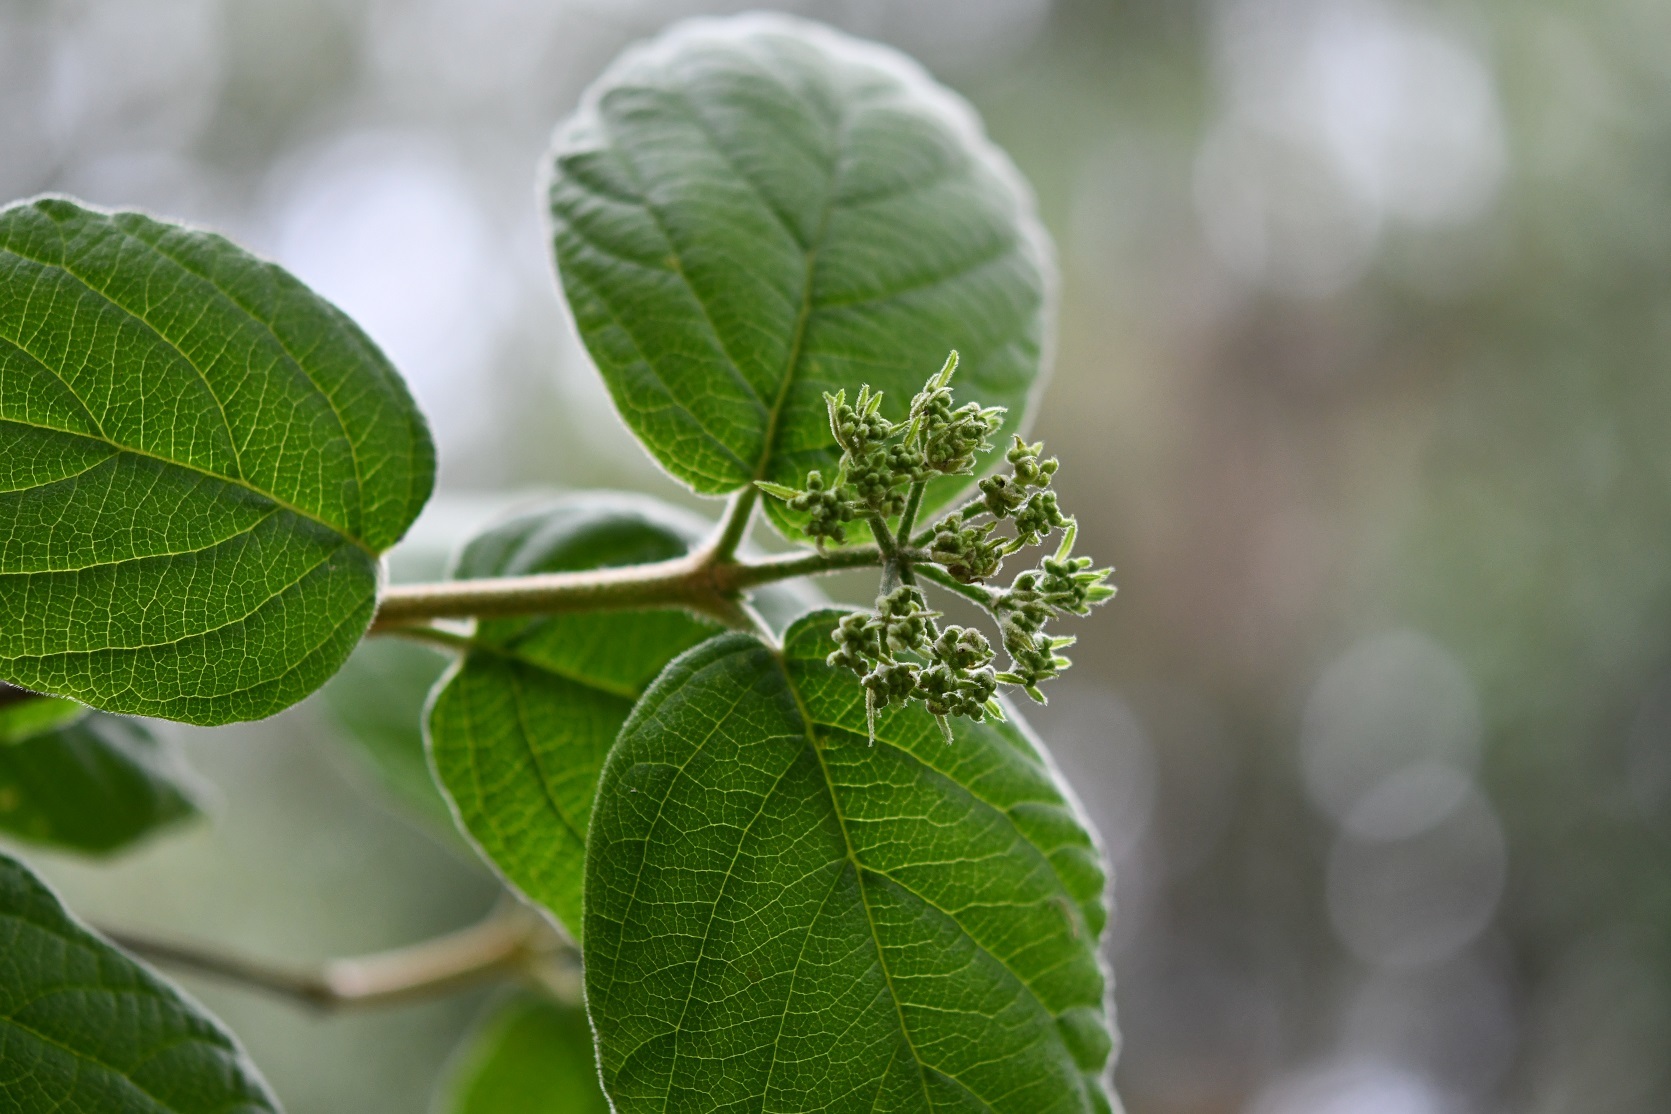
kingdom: Plantae
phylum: Tracheophyta
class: Magnoliopsida
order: Dipsacales
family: Viburnaceae
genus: Viburnum
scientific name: Viburnum jucundum
